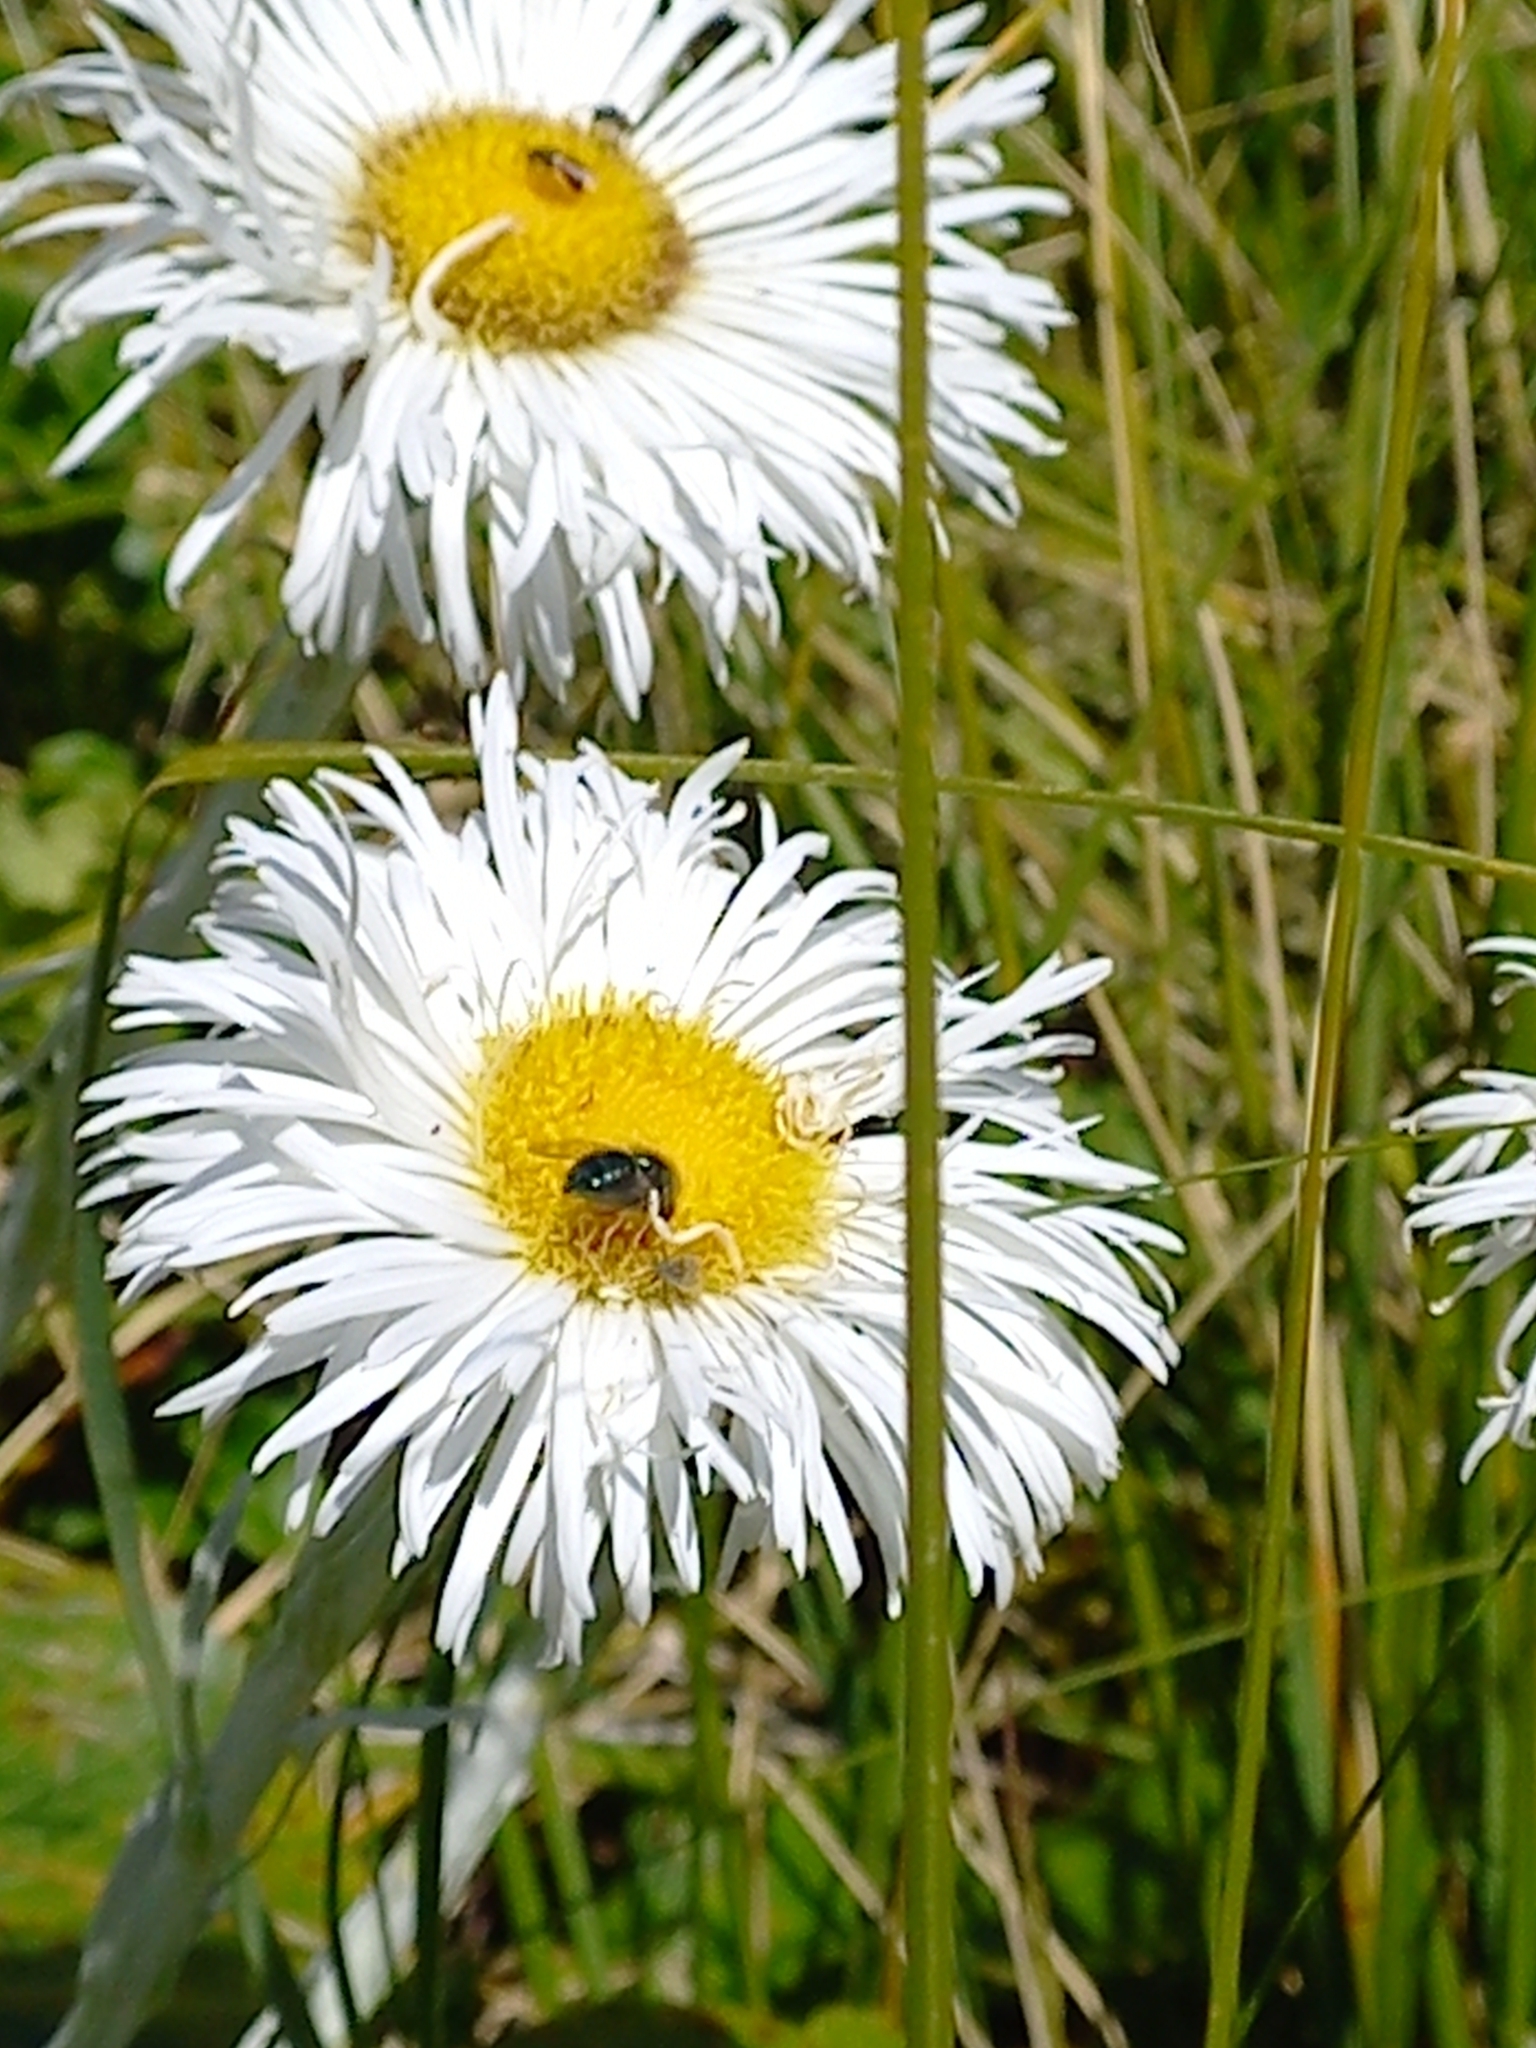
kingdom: Animalia
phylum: Arthropoda
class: Insecta
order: Diptera
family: Acroceridae
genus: Apsona
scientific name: Apsona muscaria
